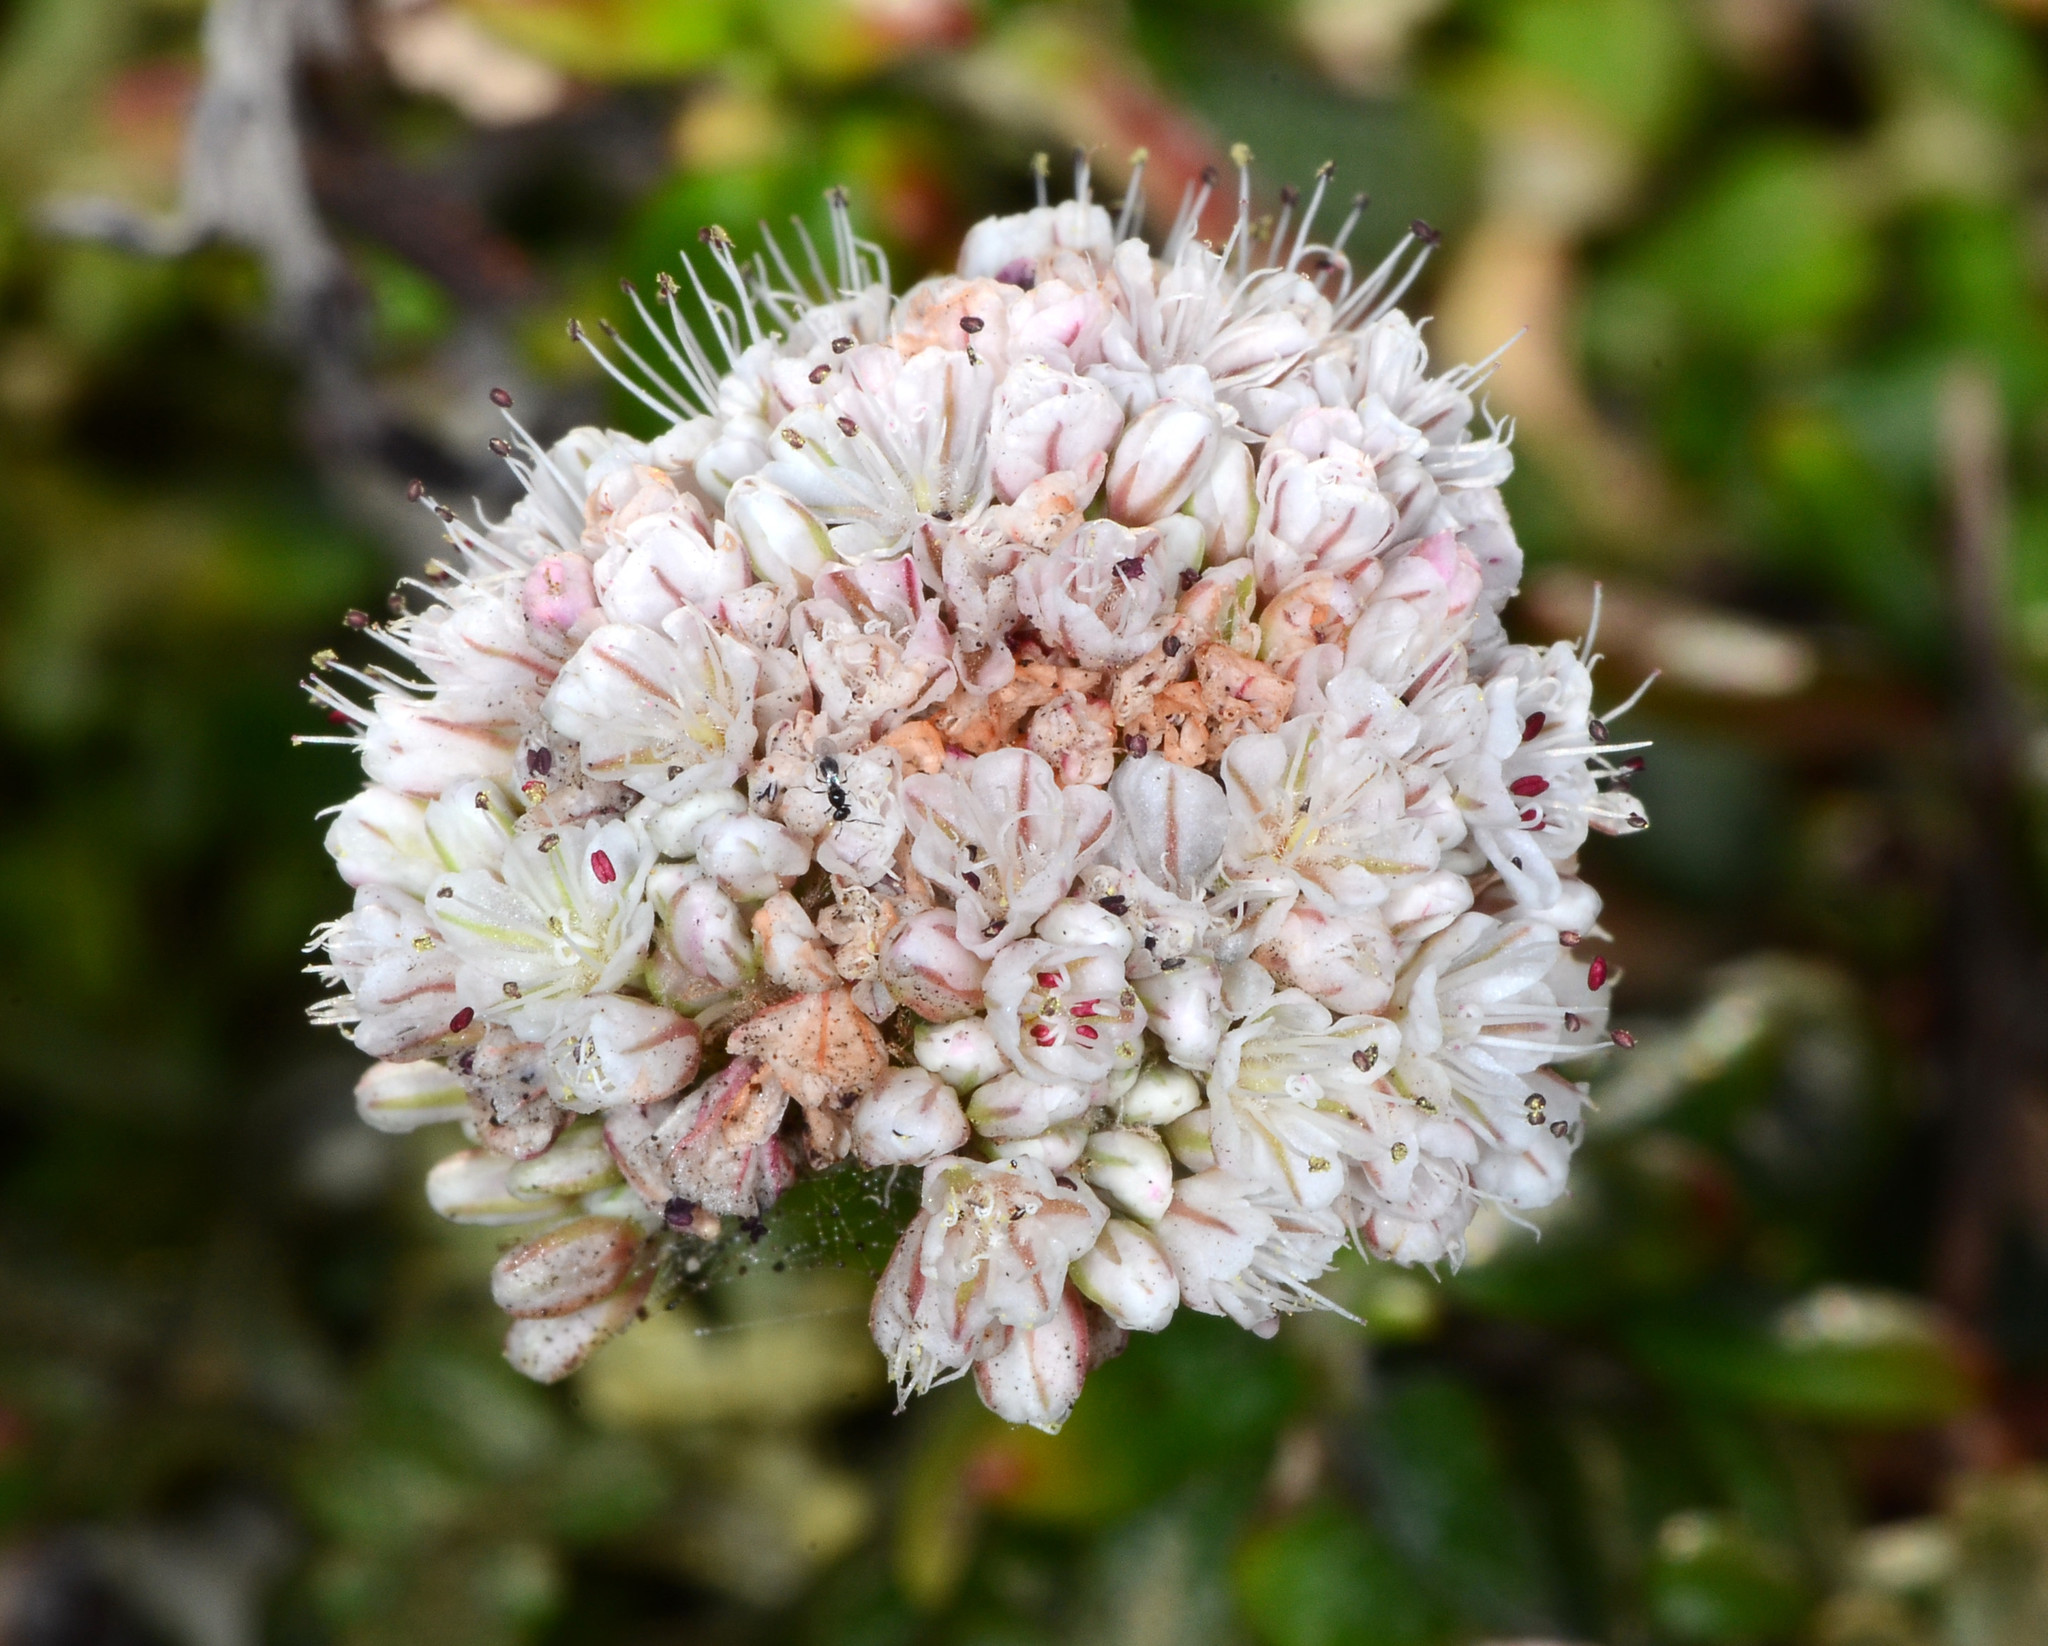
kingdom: Plantae
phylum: Tracheophyta
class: Magnoliopsida
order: Caryophyllales
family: Polygonaceae
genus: Eriogonum
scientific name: Eriogonum parvifolium
